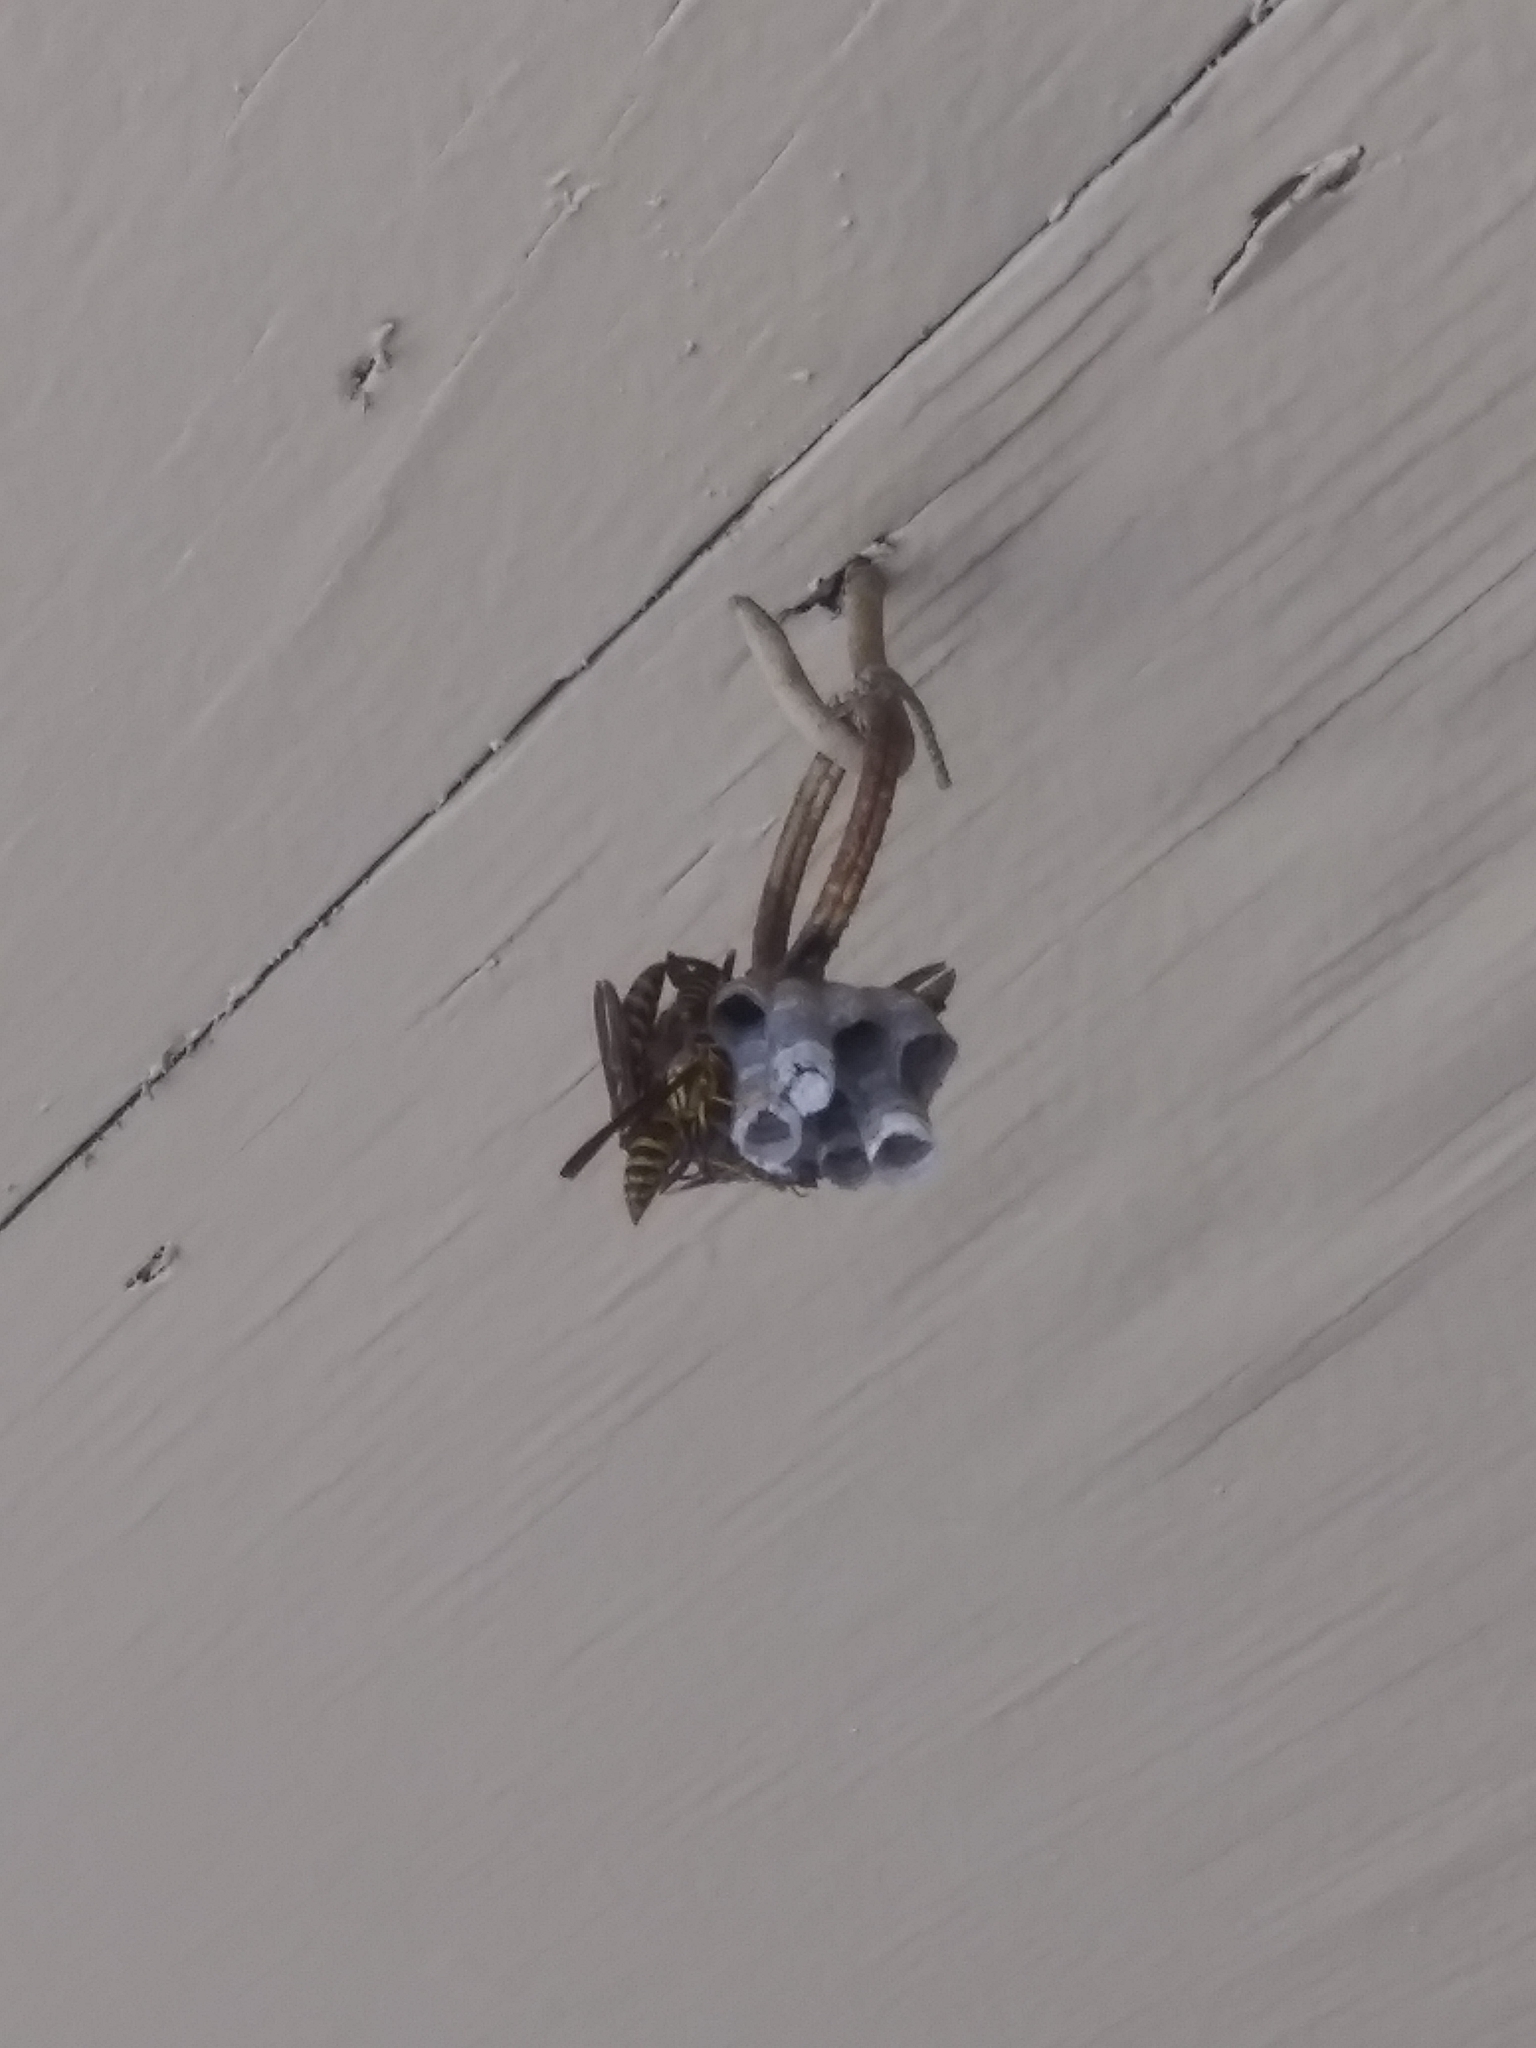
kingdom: Animalia
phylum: Arthropoda
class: Insecta
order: Hymenoptera
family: Eumenidae
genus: Polistes
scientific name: Polistes exclamans
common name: Paper wasp
